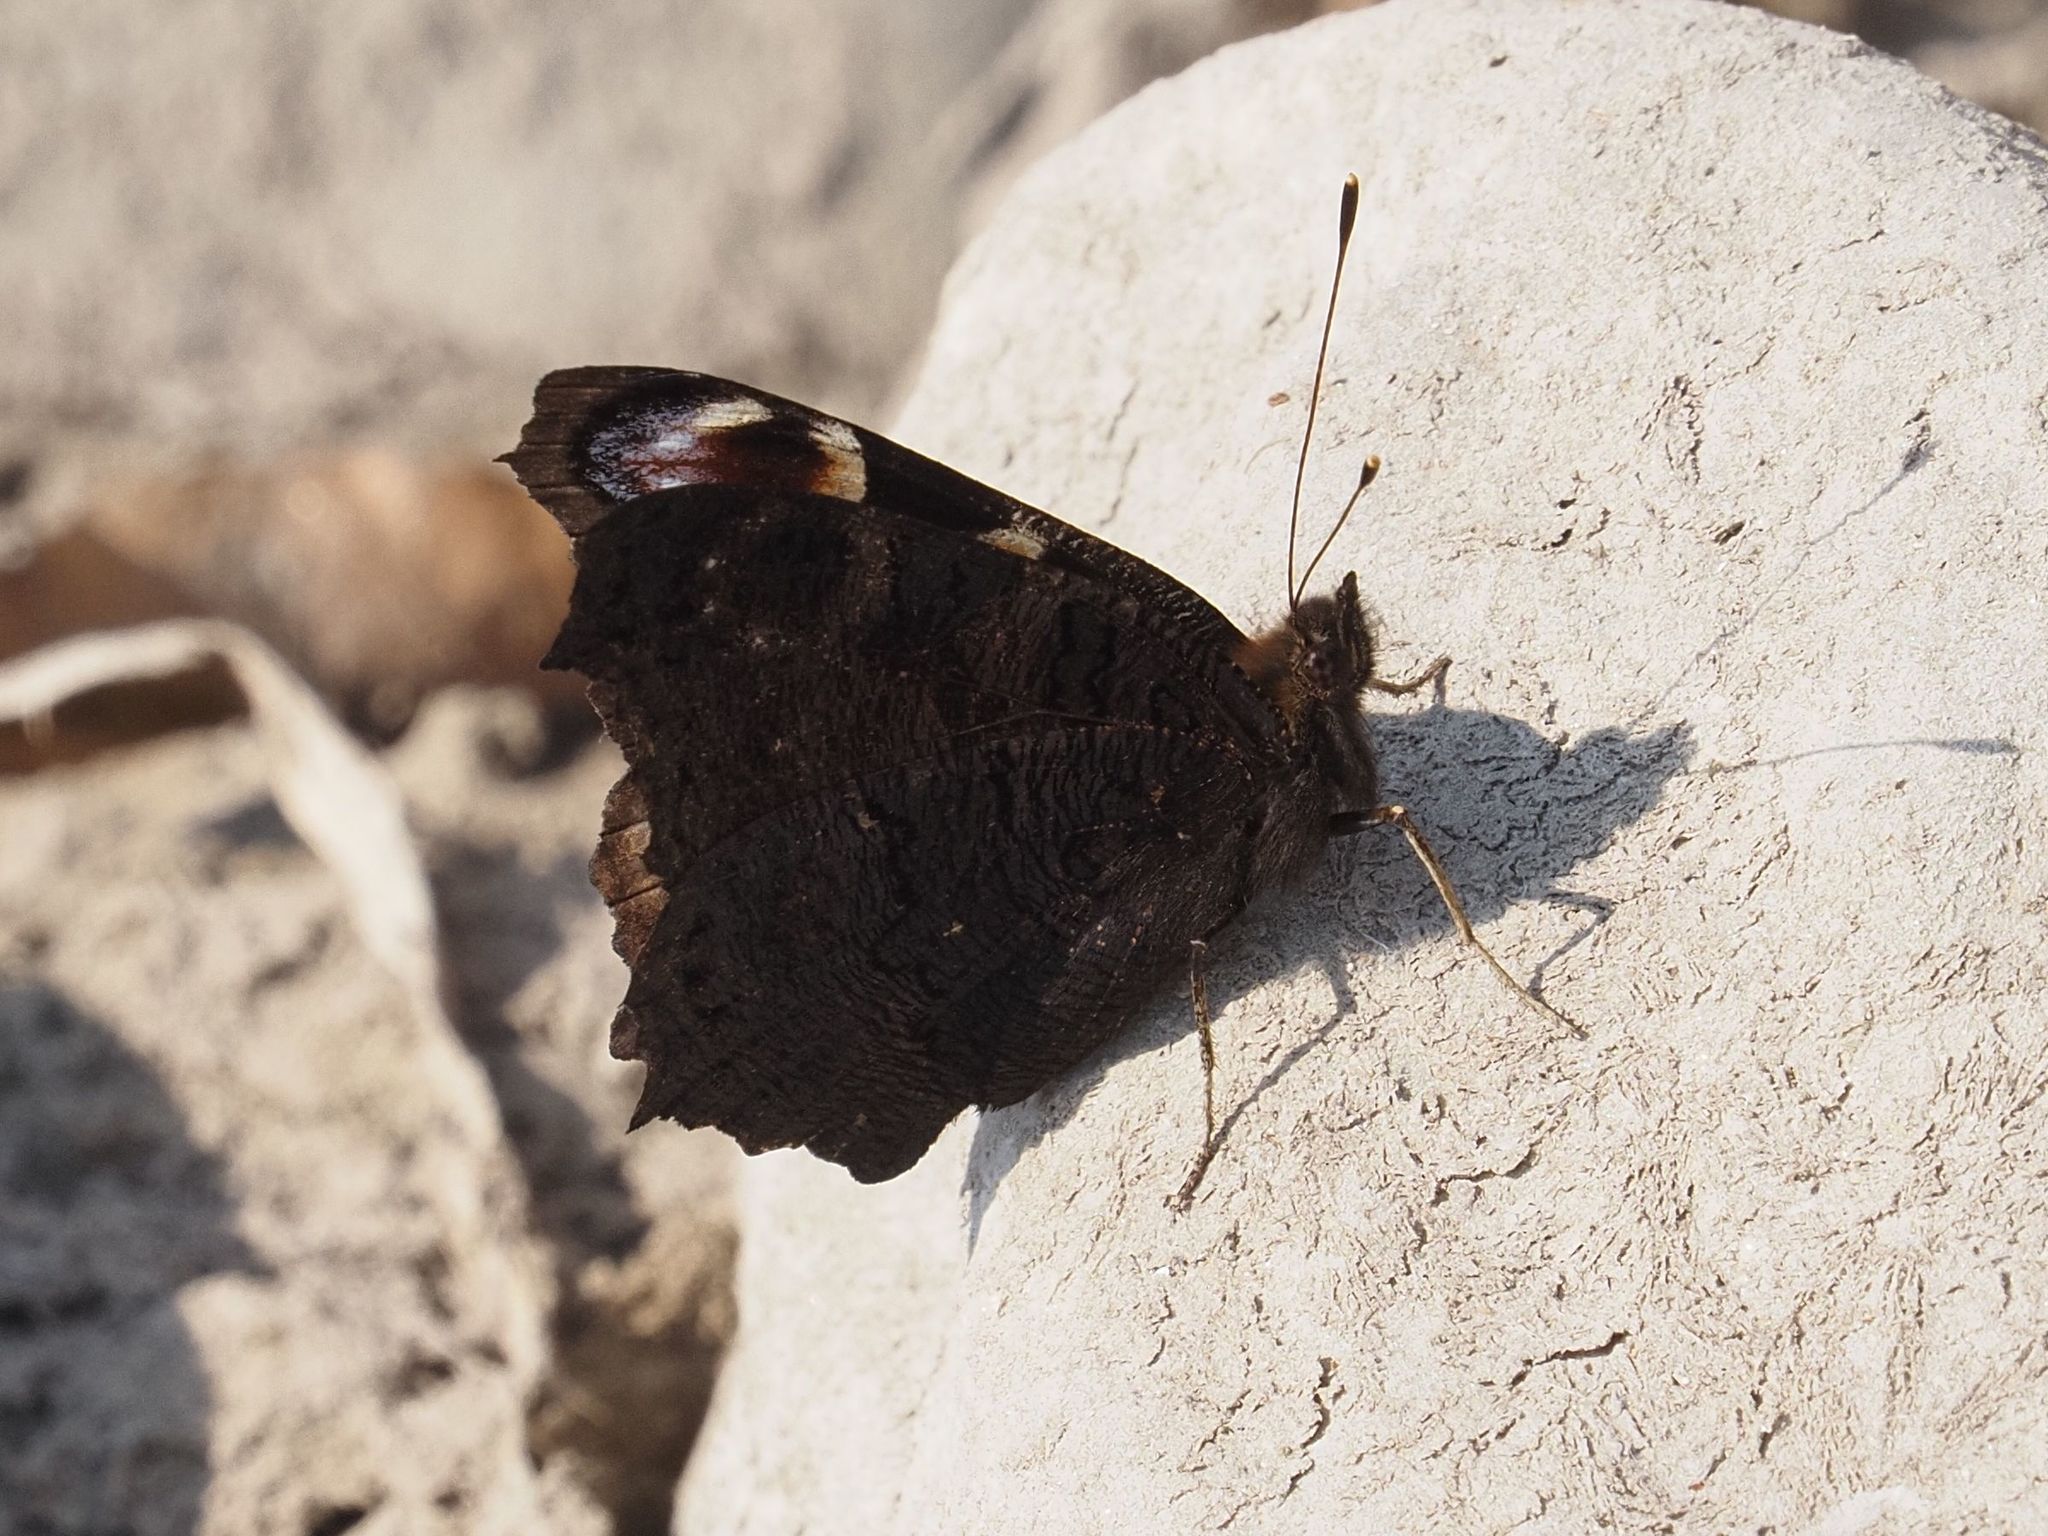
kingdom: Animalia
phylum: Arthropoda
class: Insecta
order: Lepidoptera
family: Nymphalidae
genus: Aglais
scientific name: Aglais io
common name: Peacock
